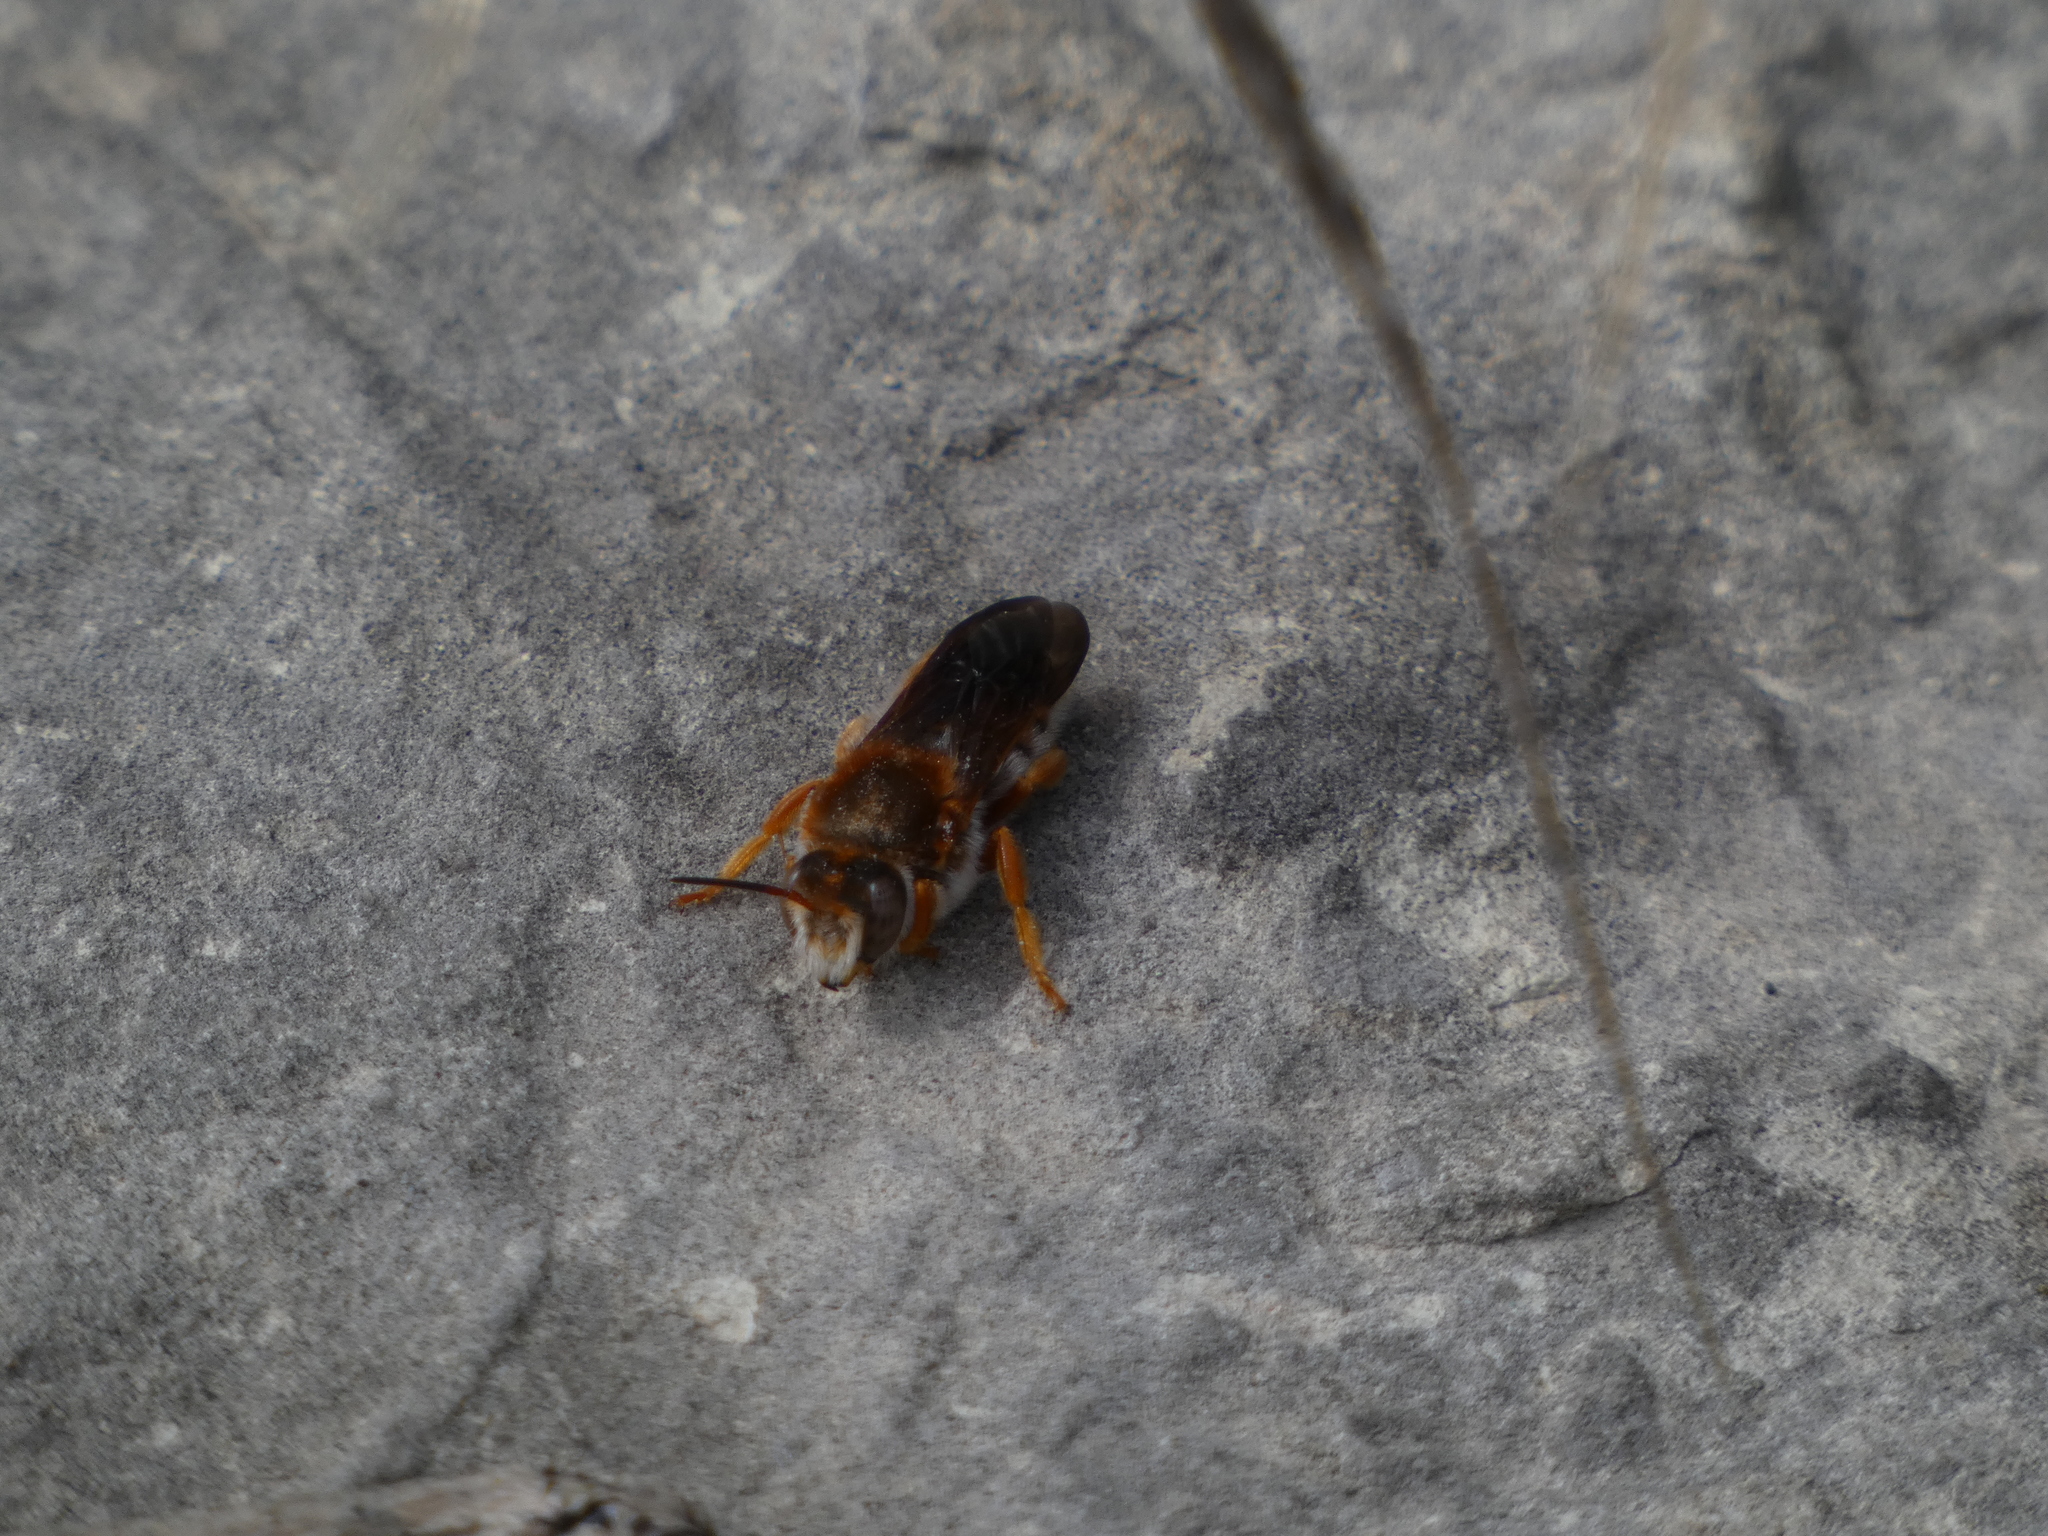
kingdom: Animalia
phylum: Arthropoda
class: Insecta
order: Hymenoptera
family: Megachilidae
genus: Rhodanthidium
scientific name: Rhodanthidium sticticum
